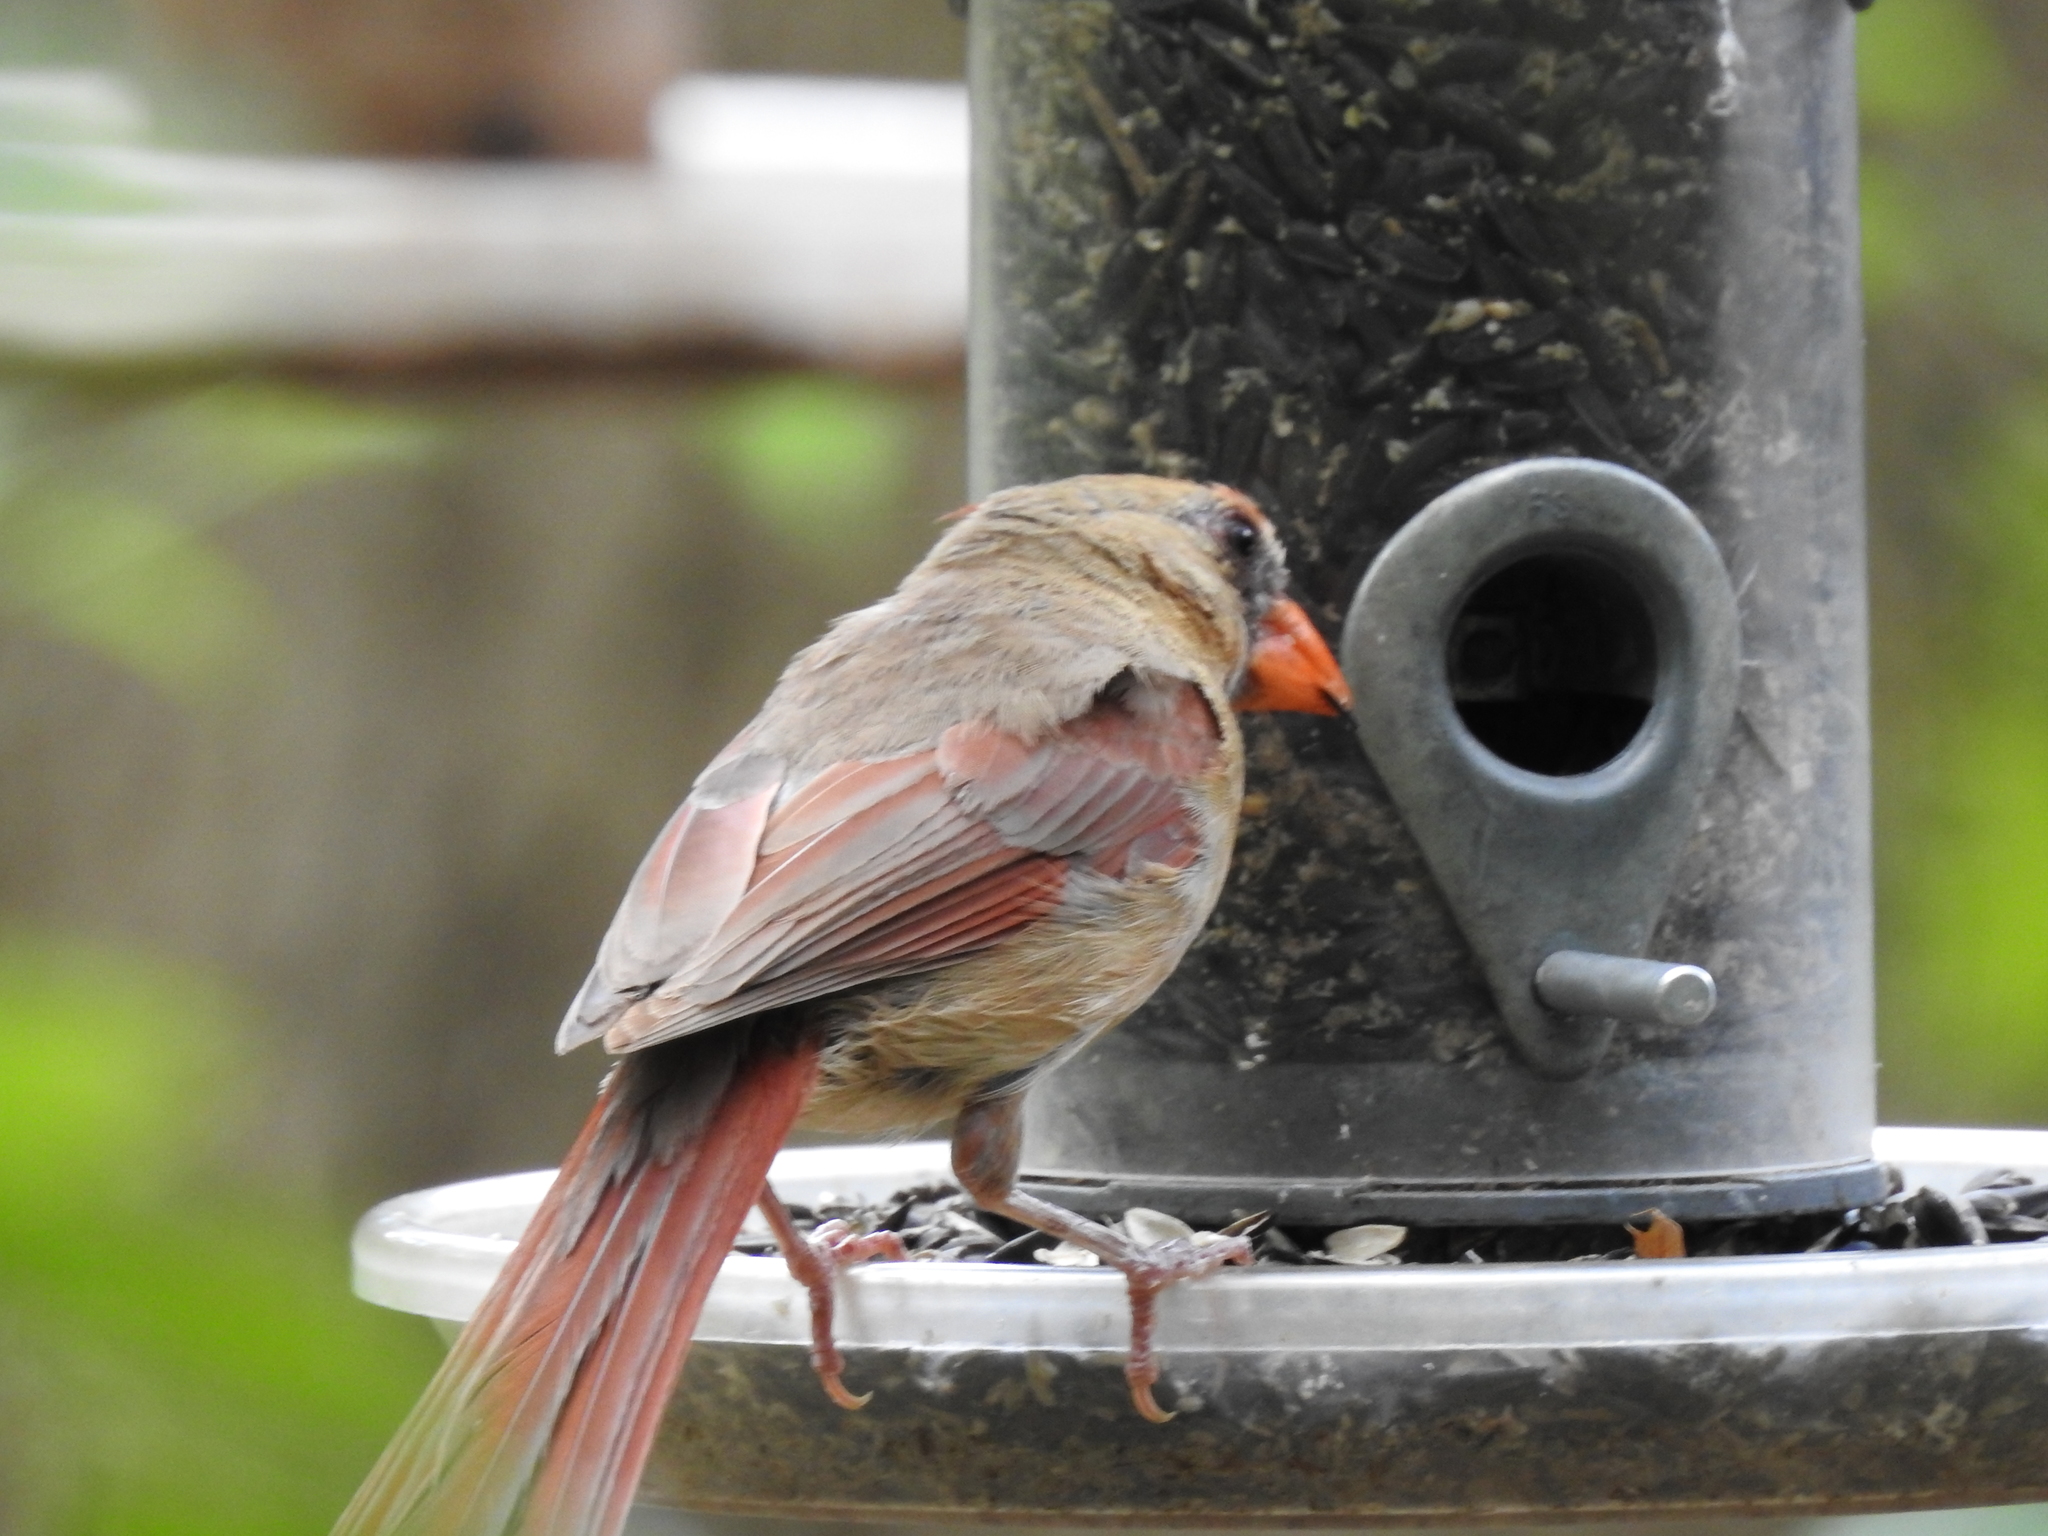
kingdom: Animalia
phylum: Chordata
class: Aves
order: Passeriformes
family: Cardinalidae
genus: Cardinalis
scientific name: Cardinalis cardinalis
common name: Northern cardinal
